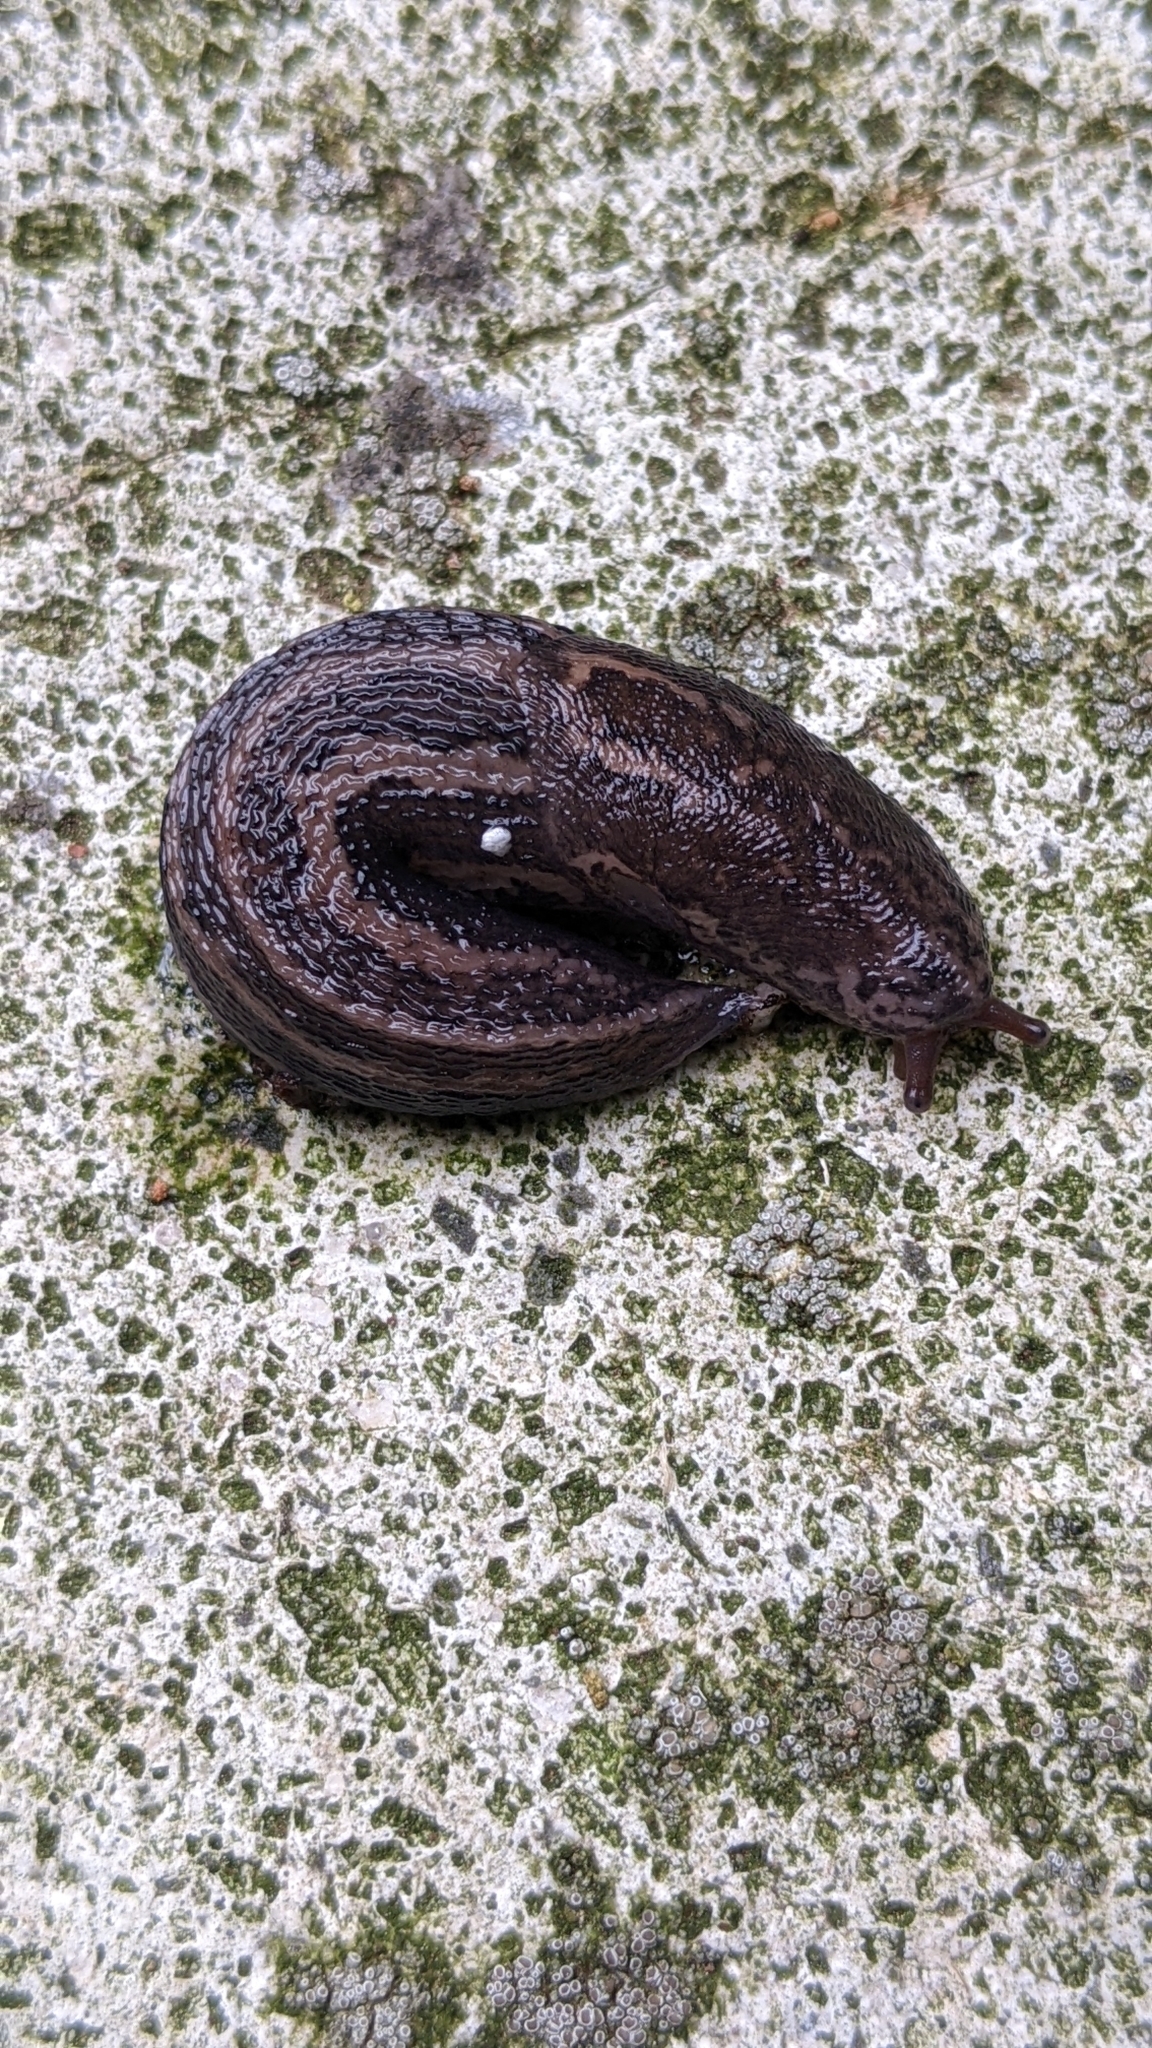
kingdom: Animalia
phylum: Mollusca
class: Gastropoda
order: Stylommatophora
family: Limacidae
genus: Limax
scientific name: Limax maximus
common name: Great grey slug
